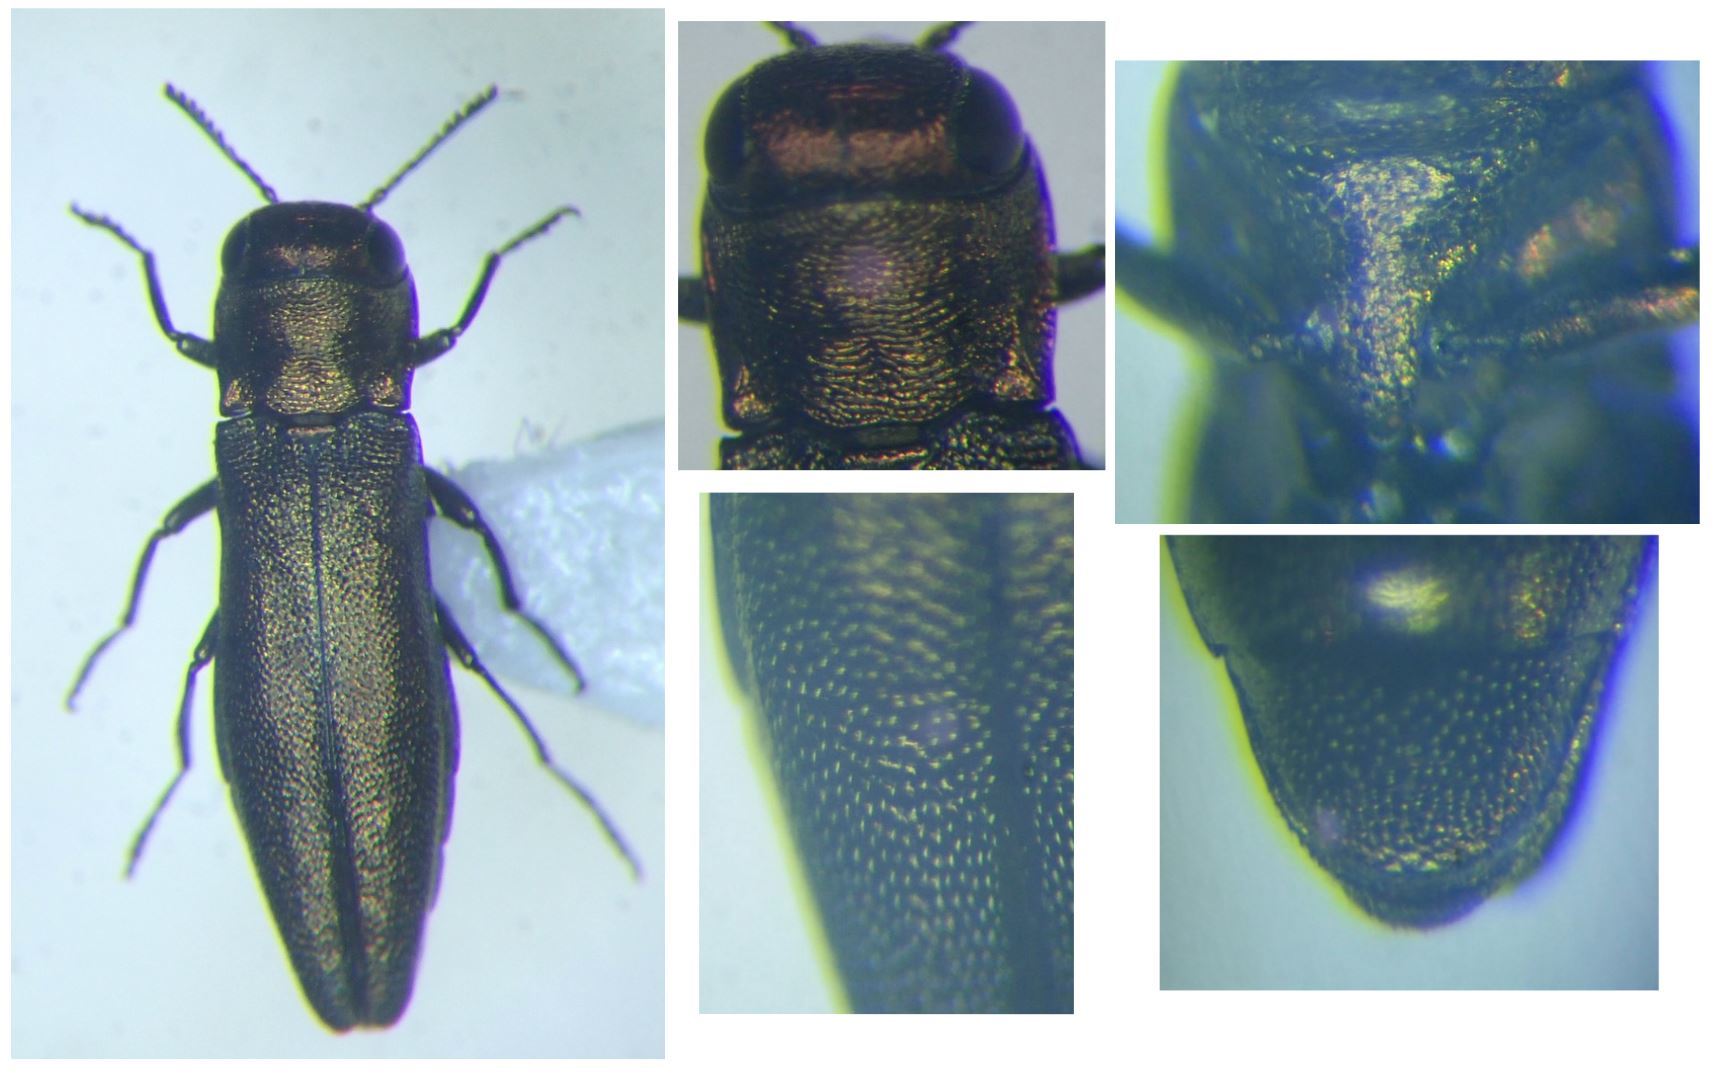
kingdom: Animalia
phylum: Arthropoda
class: Insecta
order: Coleoptera
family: Buprestidae
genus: Agrilus
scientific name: Agrilus viridicaerulans
